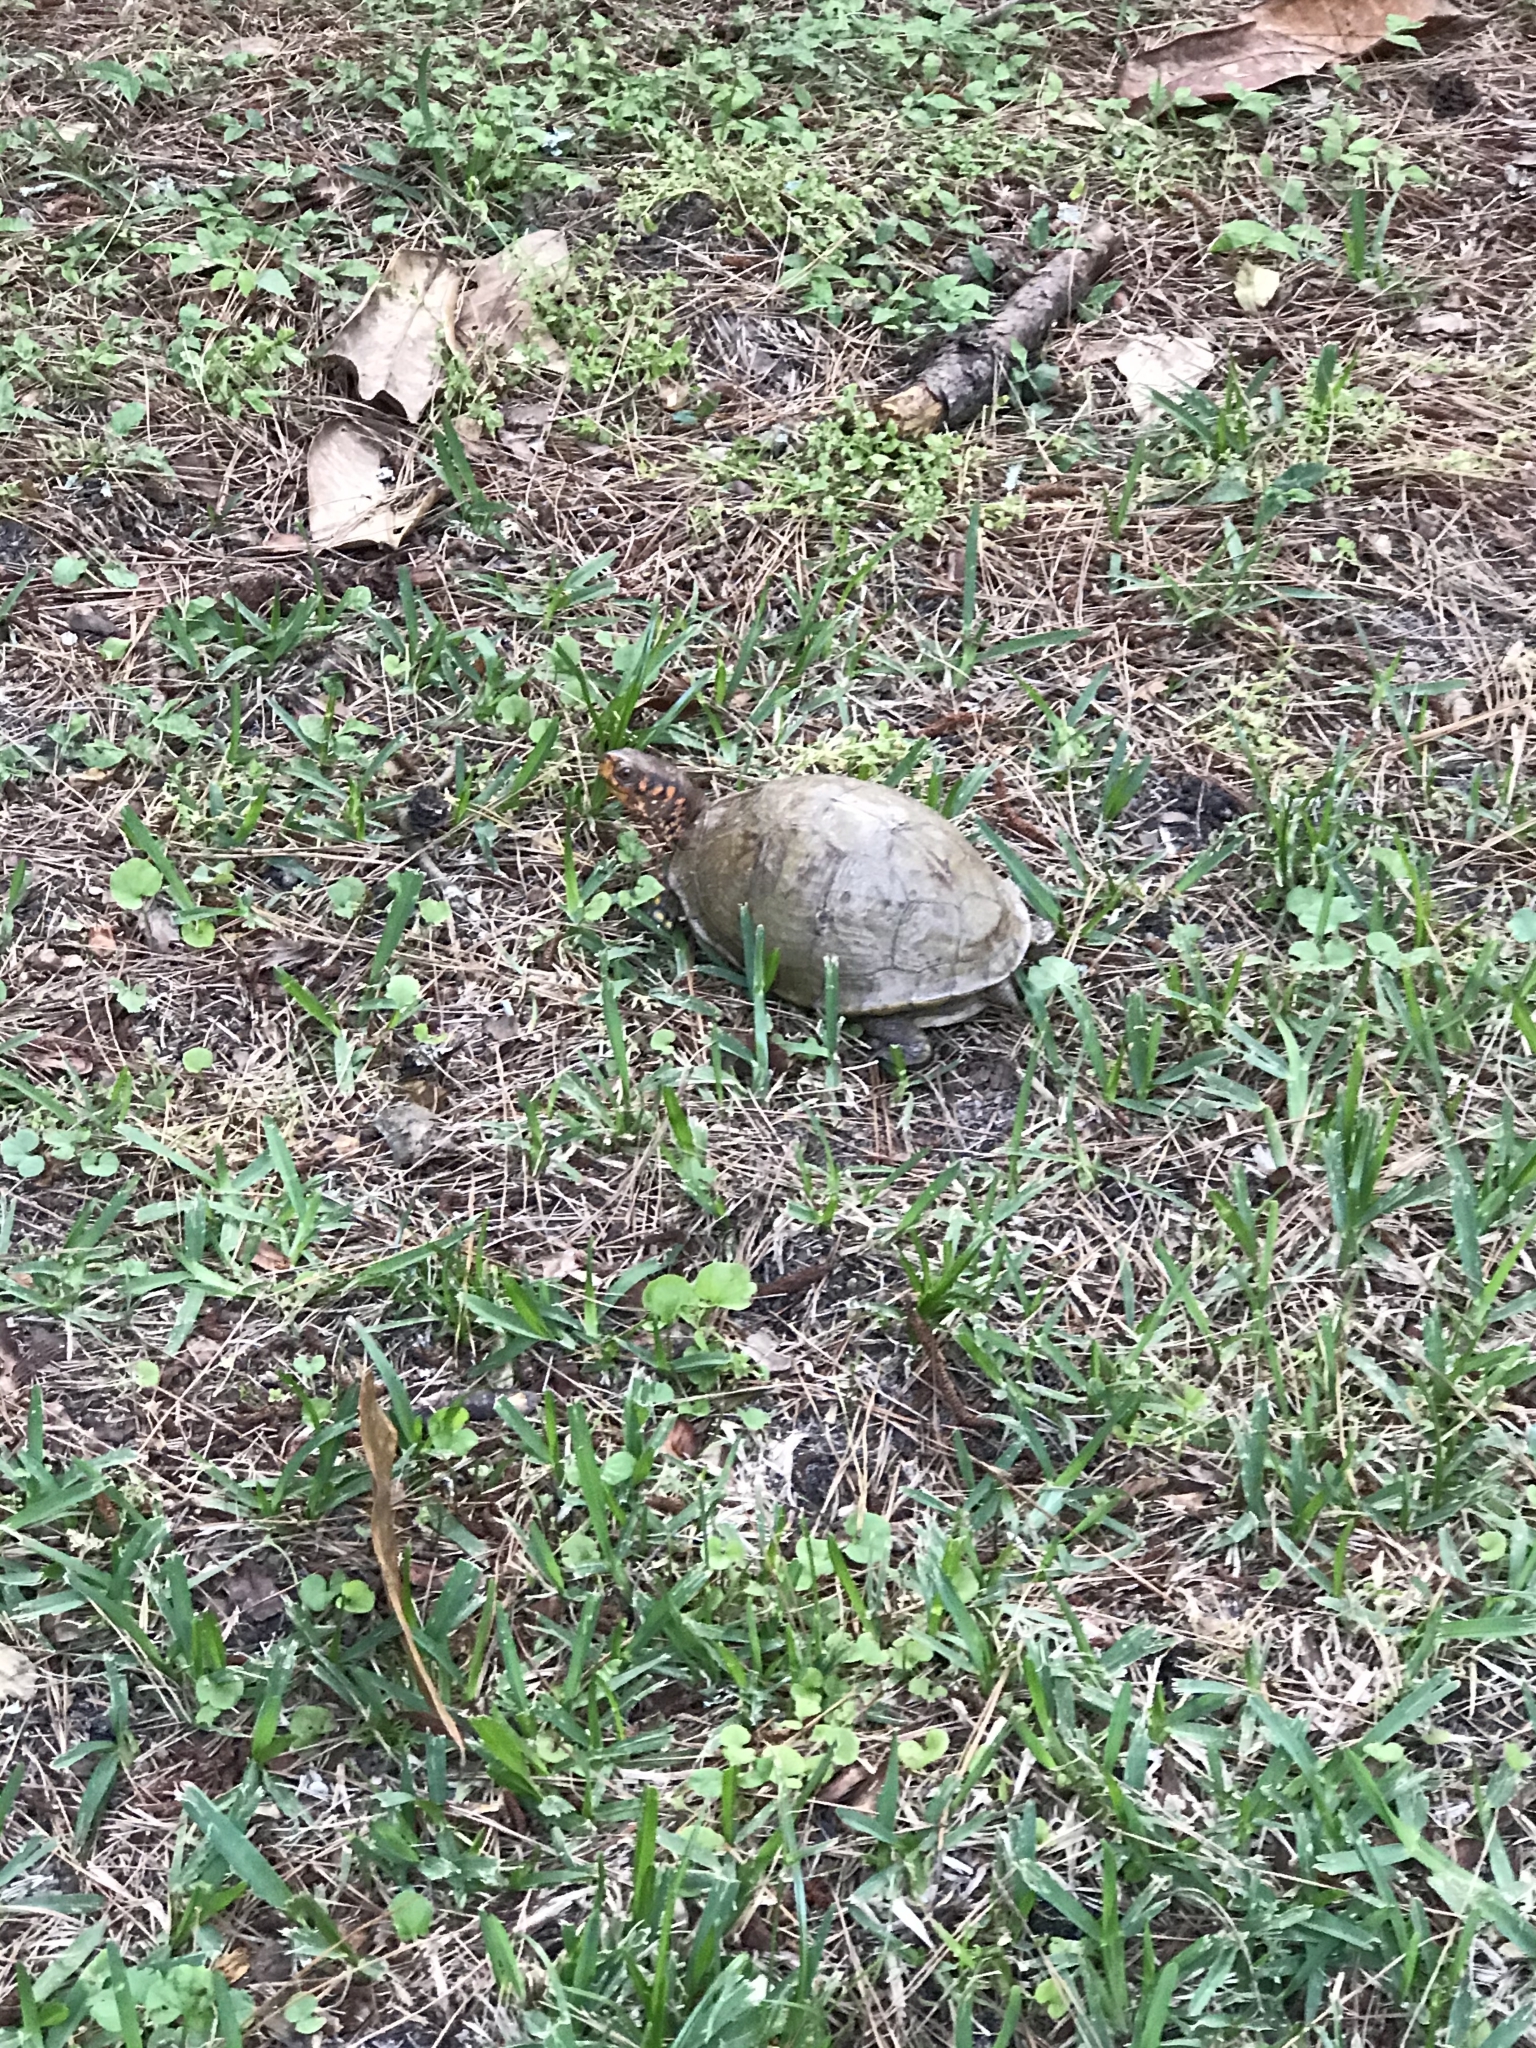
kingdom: Animalia
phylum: Chordata
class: Testudines
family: Emydidae
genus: Terrapene
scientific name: Terrapene carolina
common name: Common box turtle
